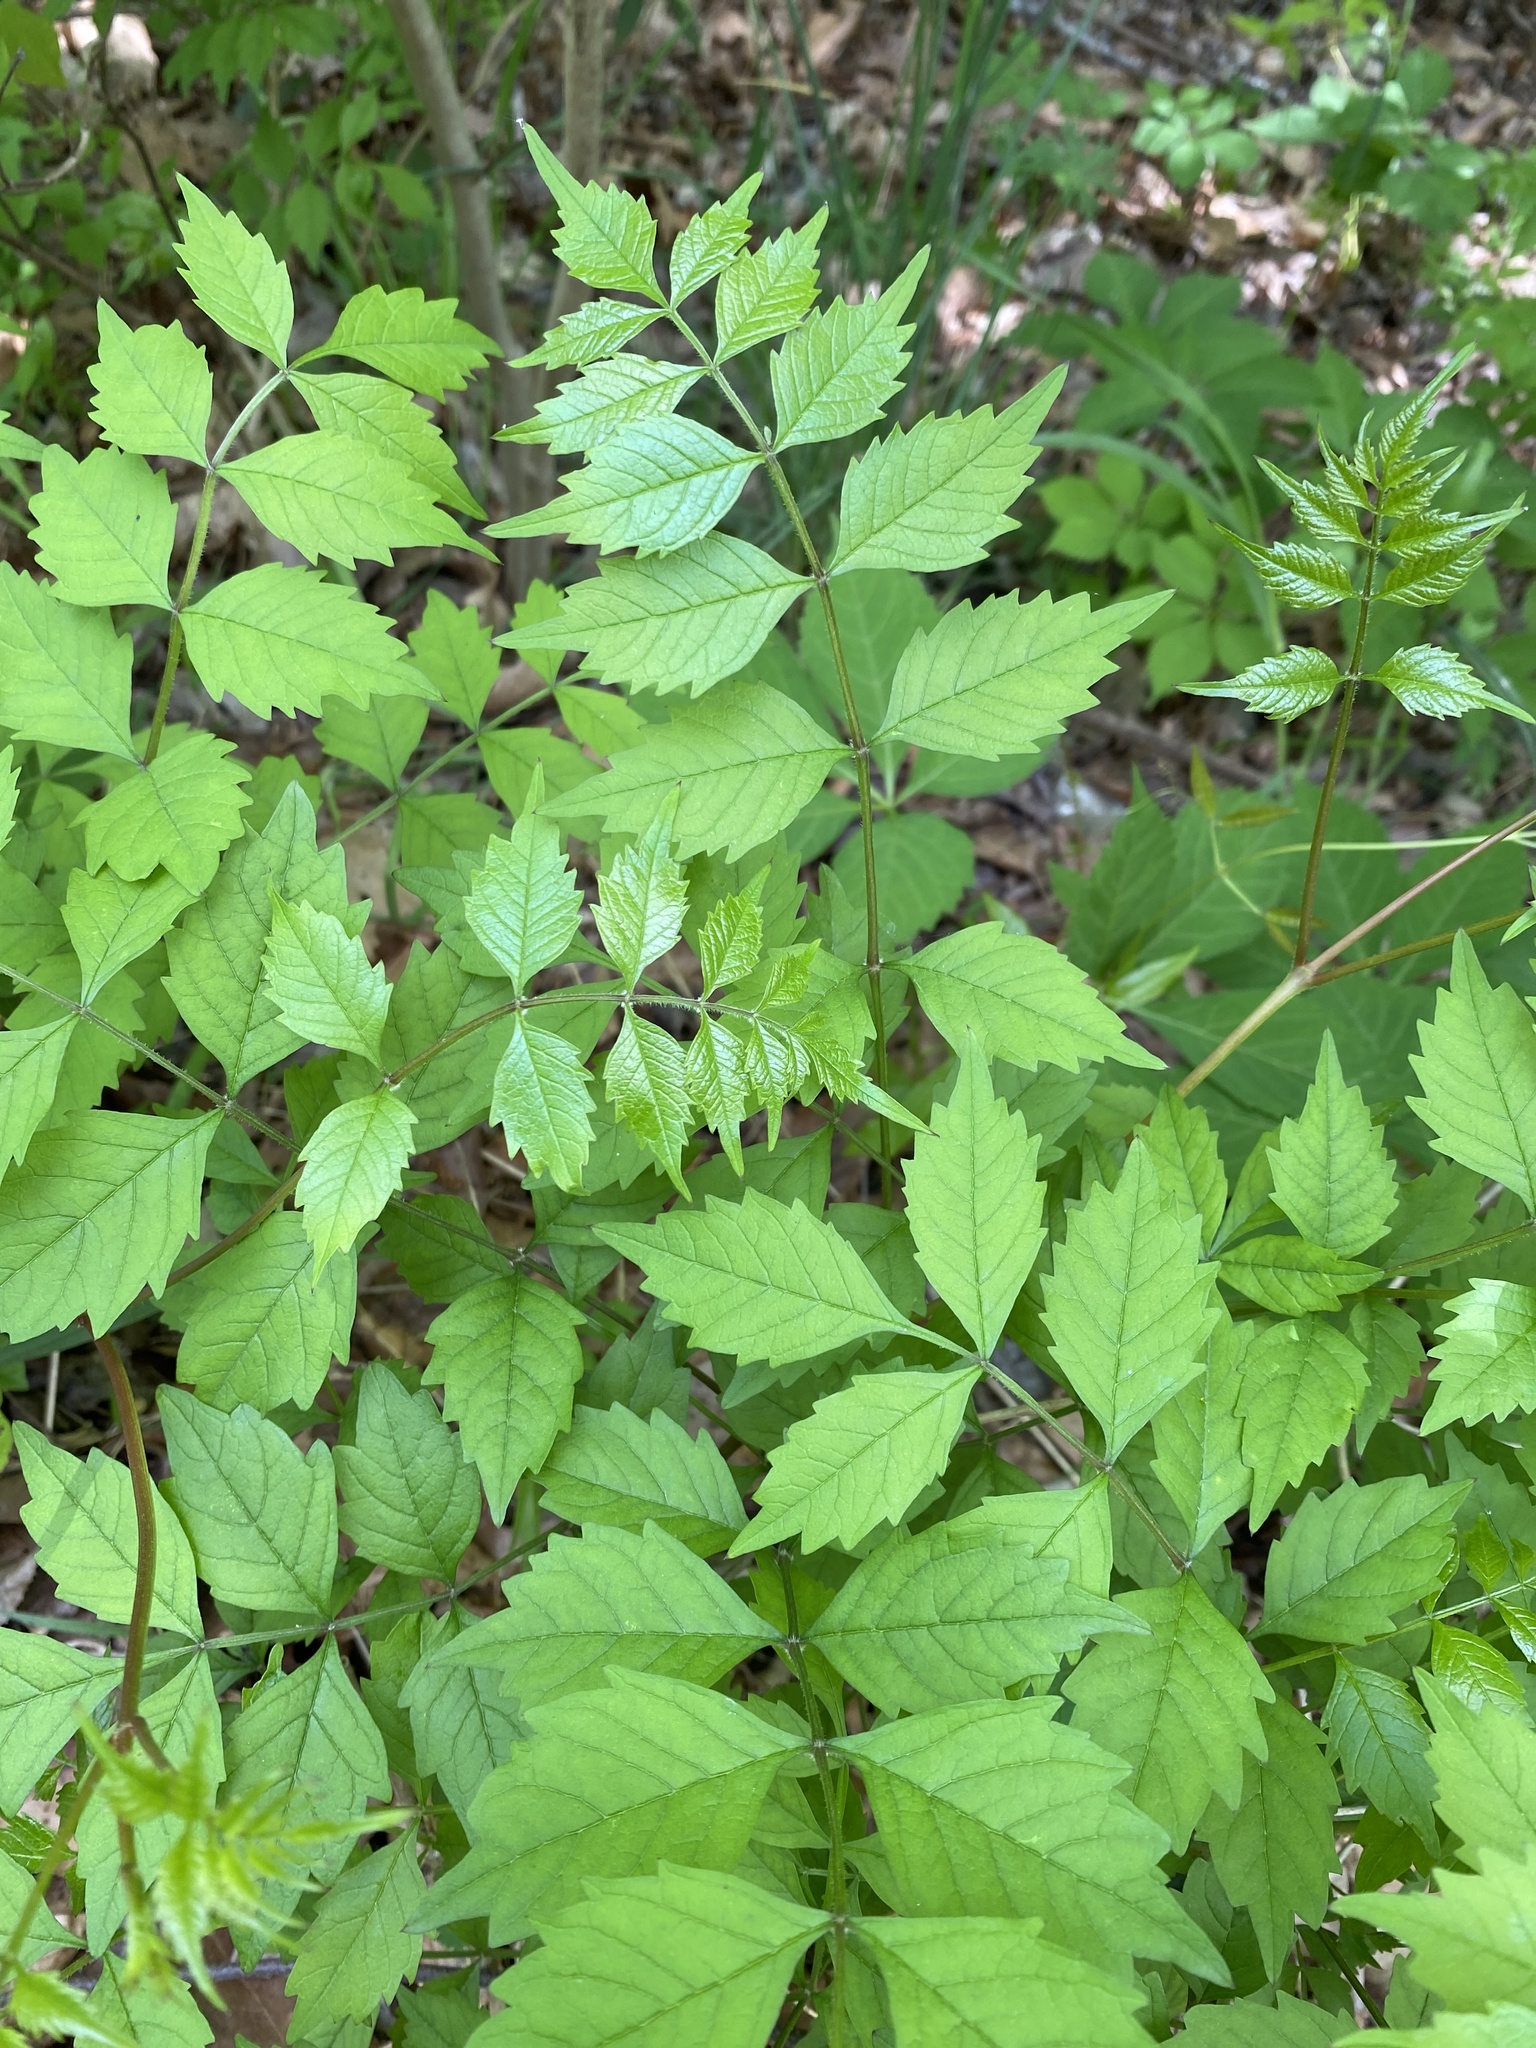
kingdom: Plantae
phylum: Tracheophyta
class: Magnoliopsida
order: Lamiales
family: Bignoniaceae
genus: Campsis
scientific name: Campsis radicans
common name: Trumpet-creeper
